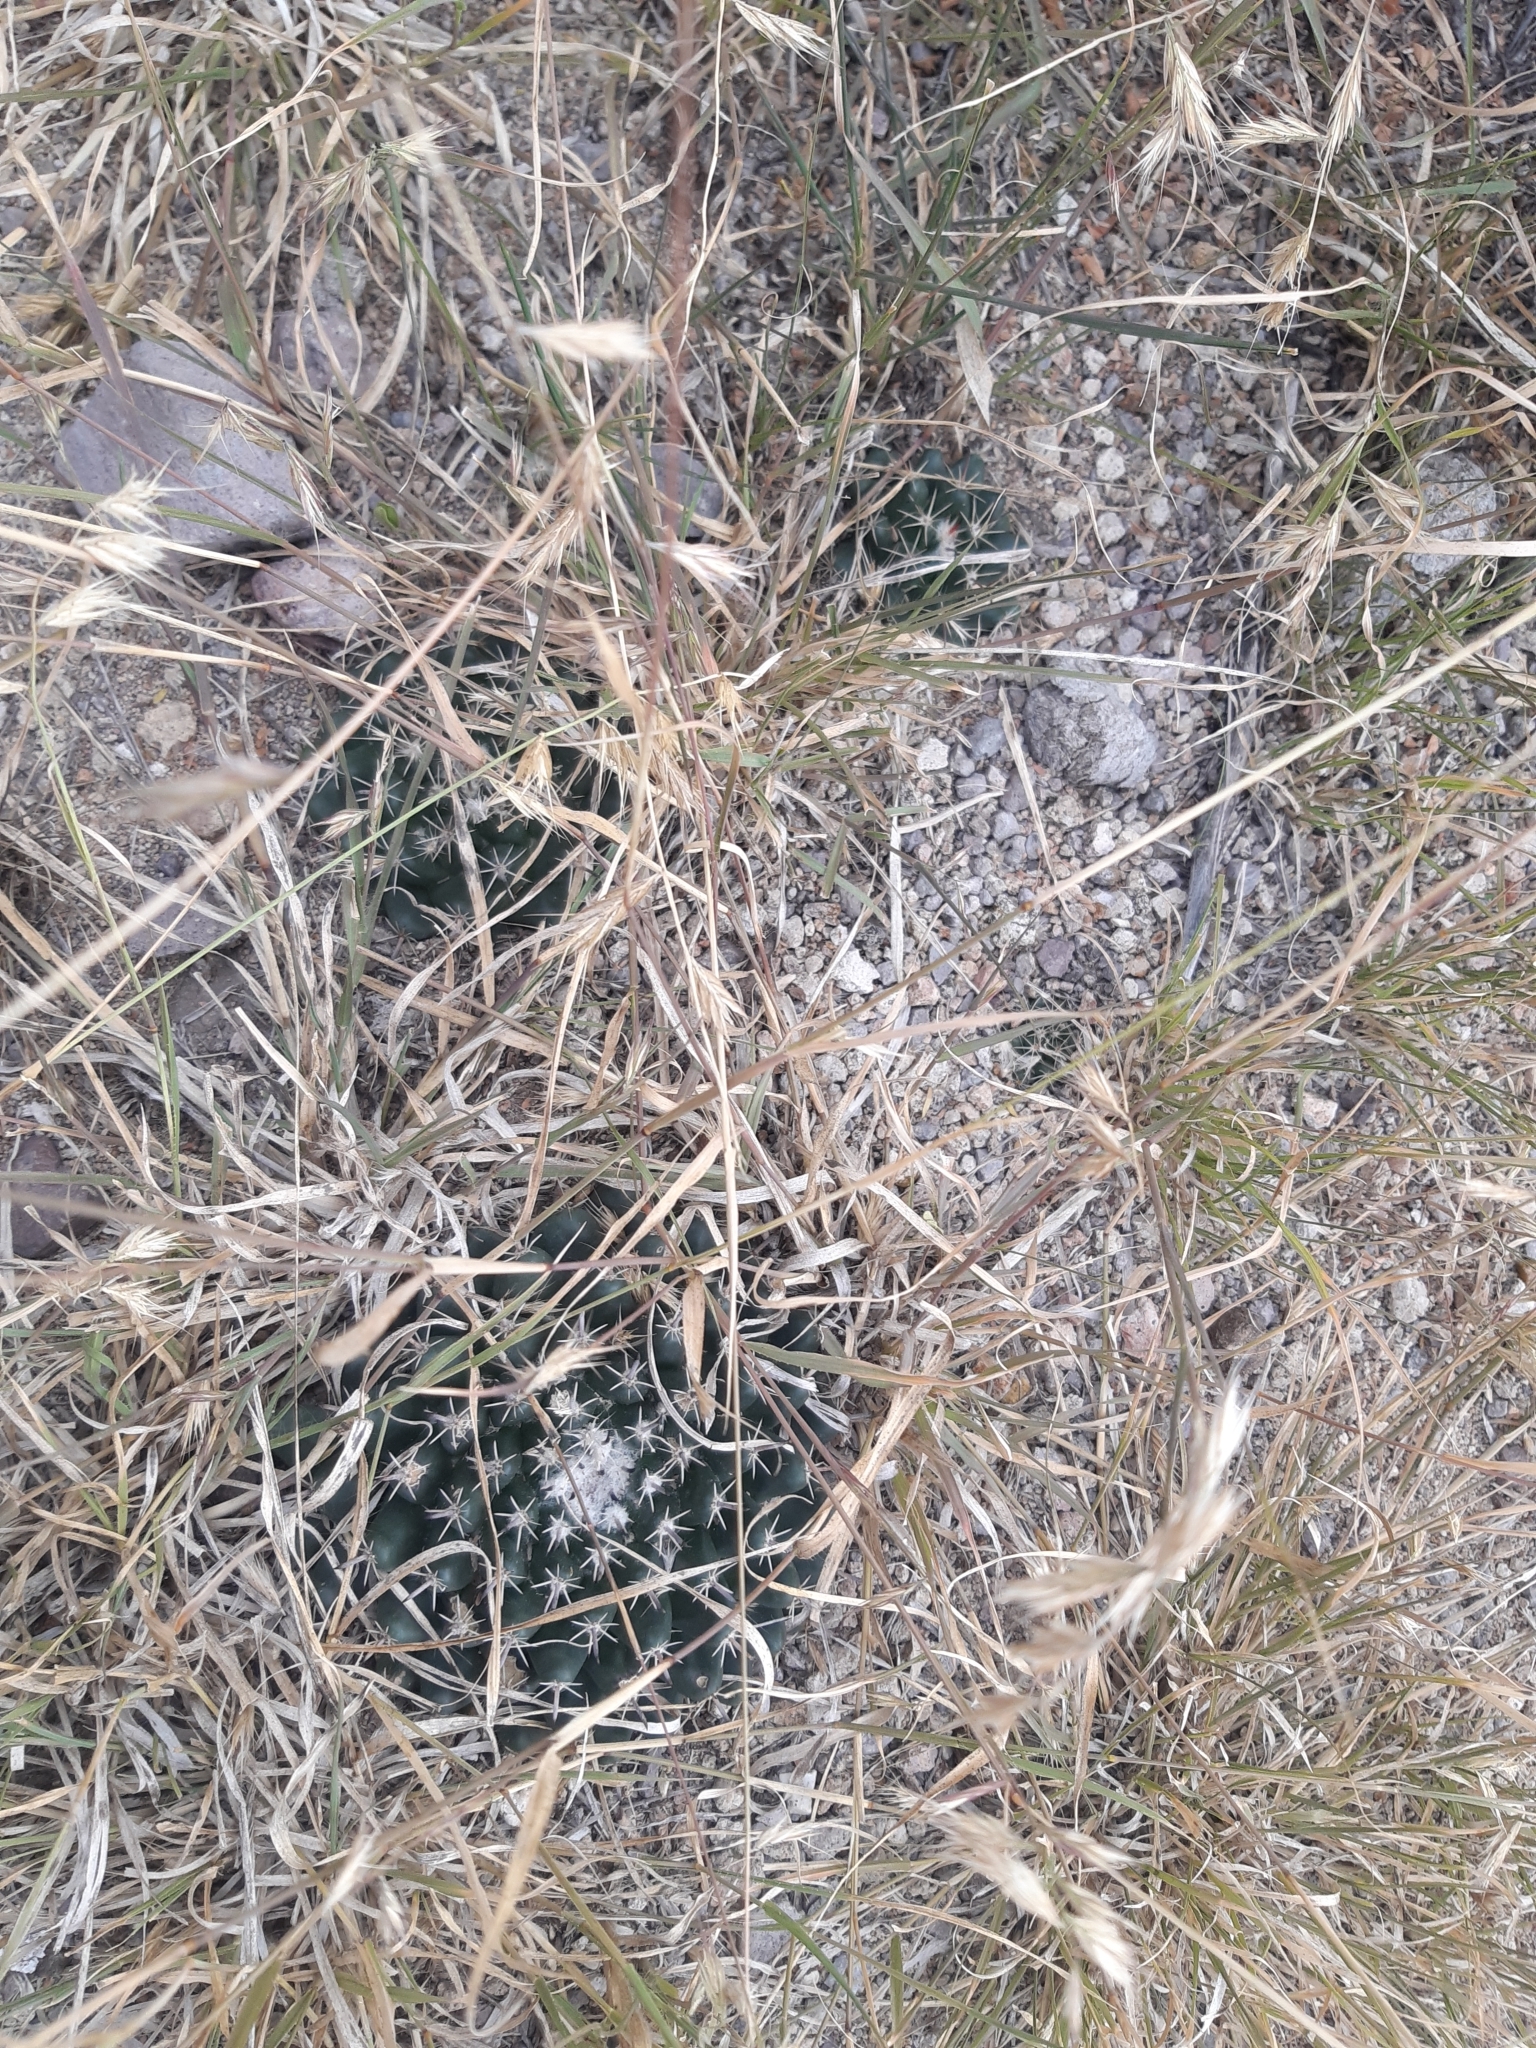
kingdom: Plantae
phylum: Tracheophyta
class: Magnoliopsida
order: Caryophyllales
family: Cactaceae
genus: Mammillaria
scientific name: Mammillaria uncinata
